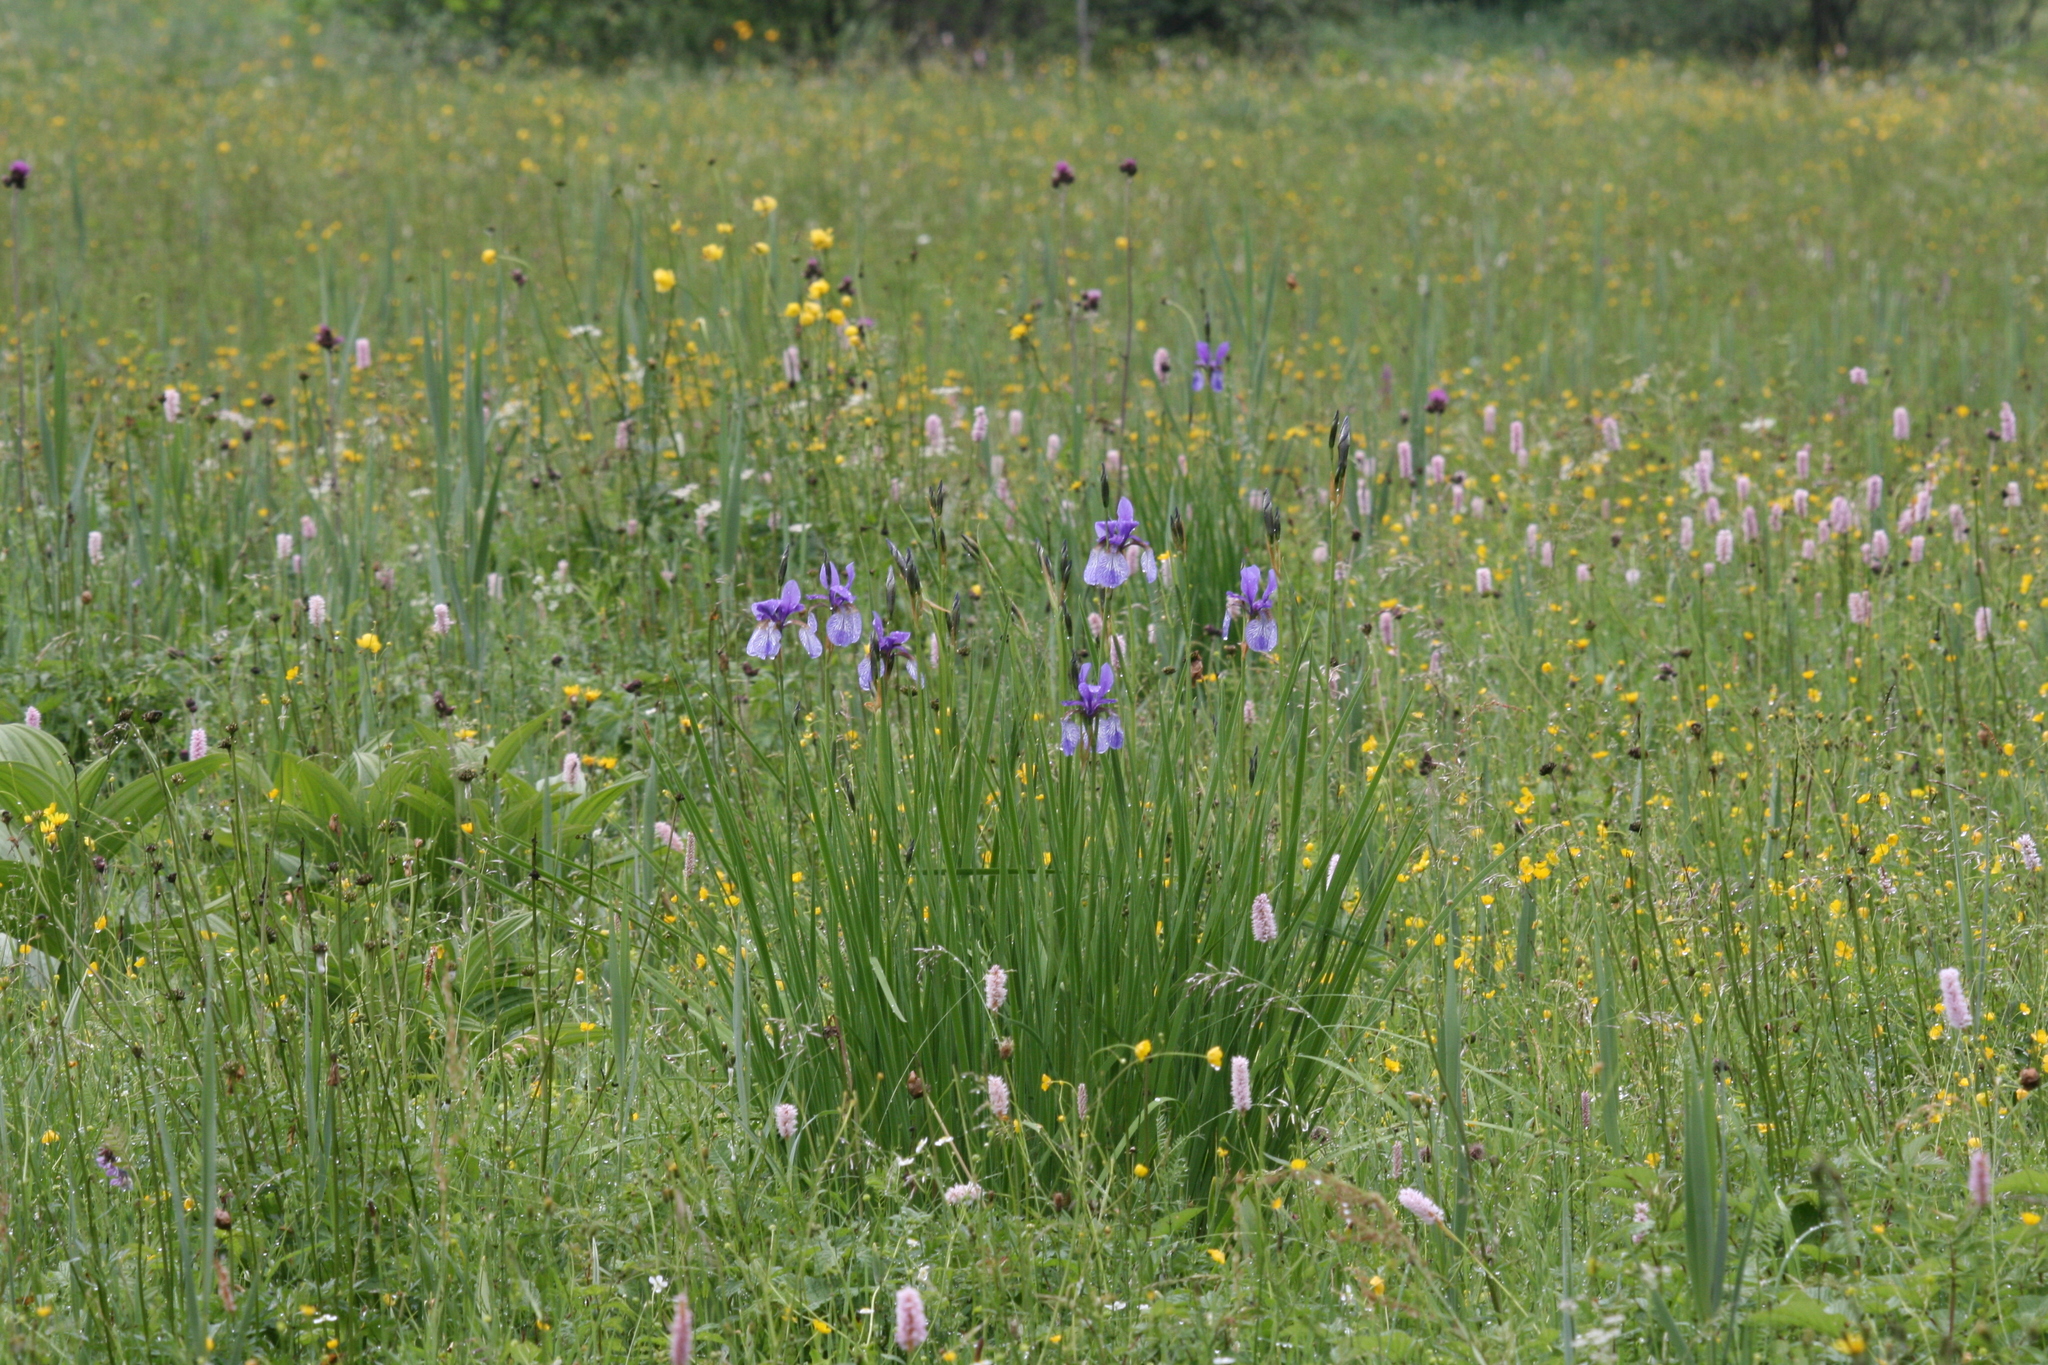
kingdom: Plantae
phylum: Tracheophyta
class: Liliopsida
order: Asparagales
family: Iridaceae
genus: Iris
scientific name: Iris sibirica
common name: Siberian iris
